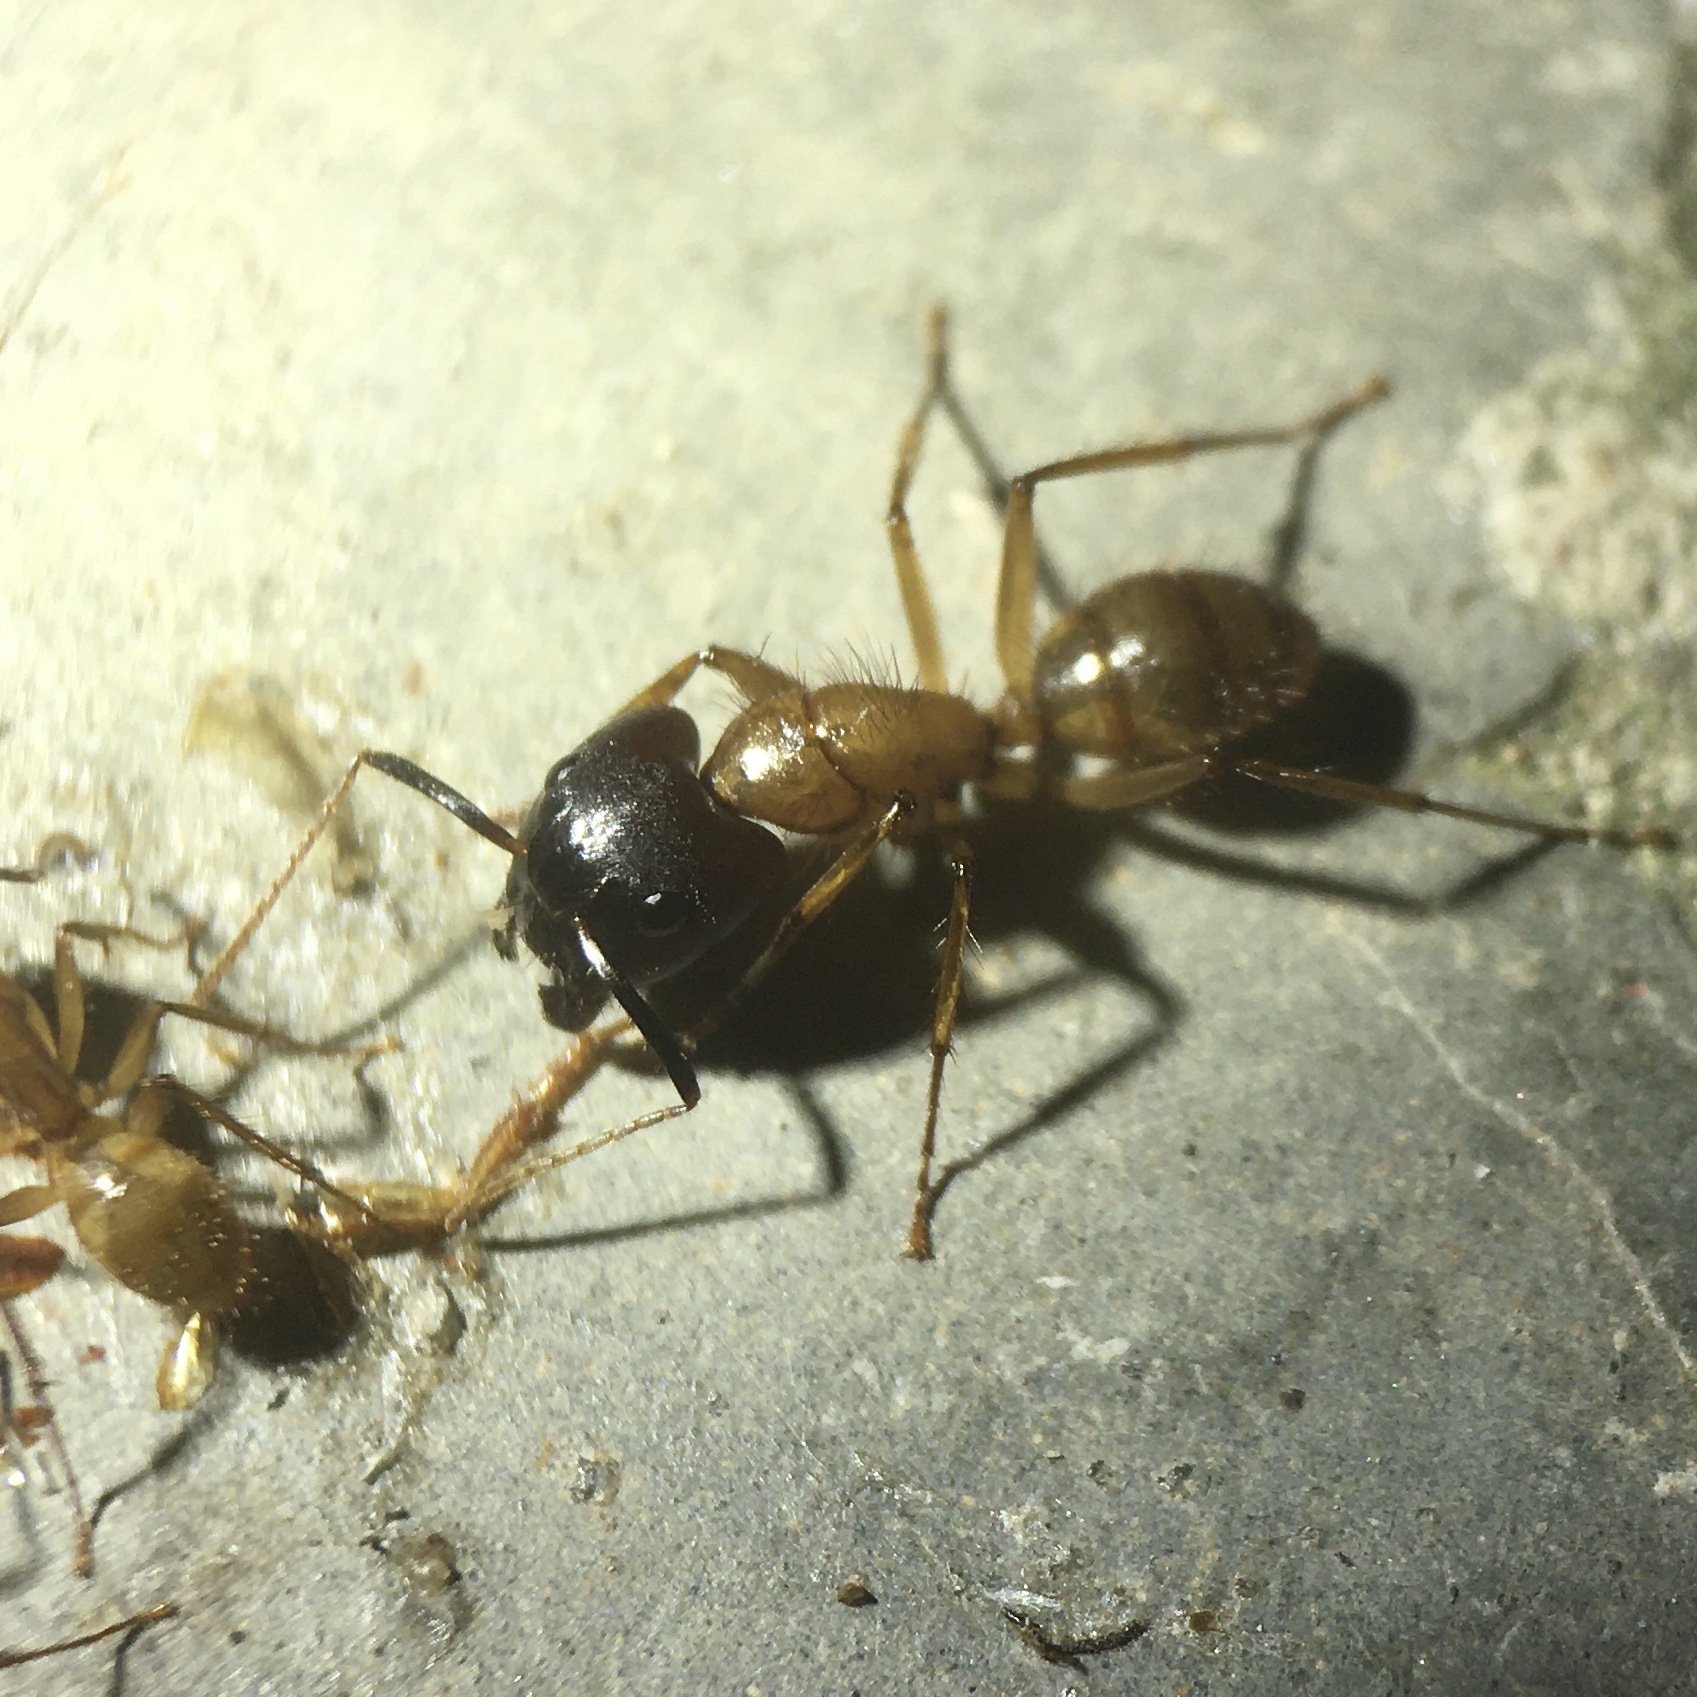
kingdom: Animalia
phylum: Arthropoda
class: Insecta
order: Hymenoptera
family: Formicidae
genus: Camponotus
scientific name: Camponotus atriceps
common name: Florida carpenter ant
